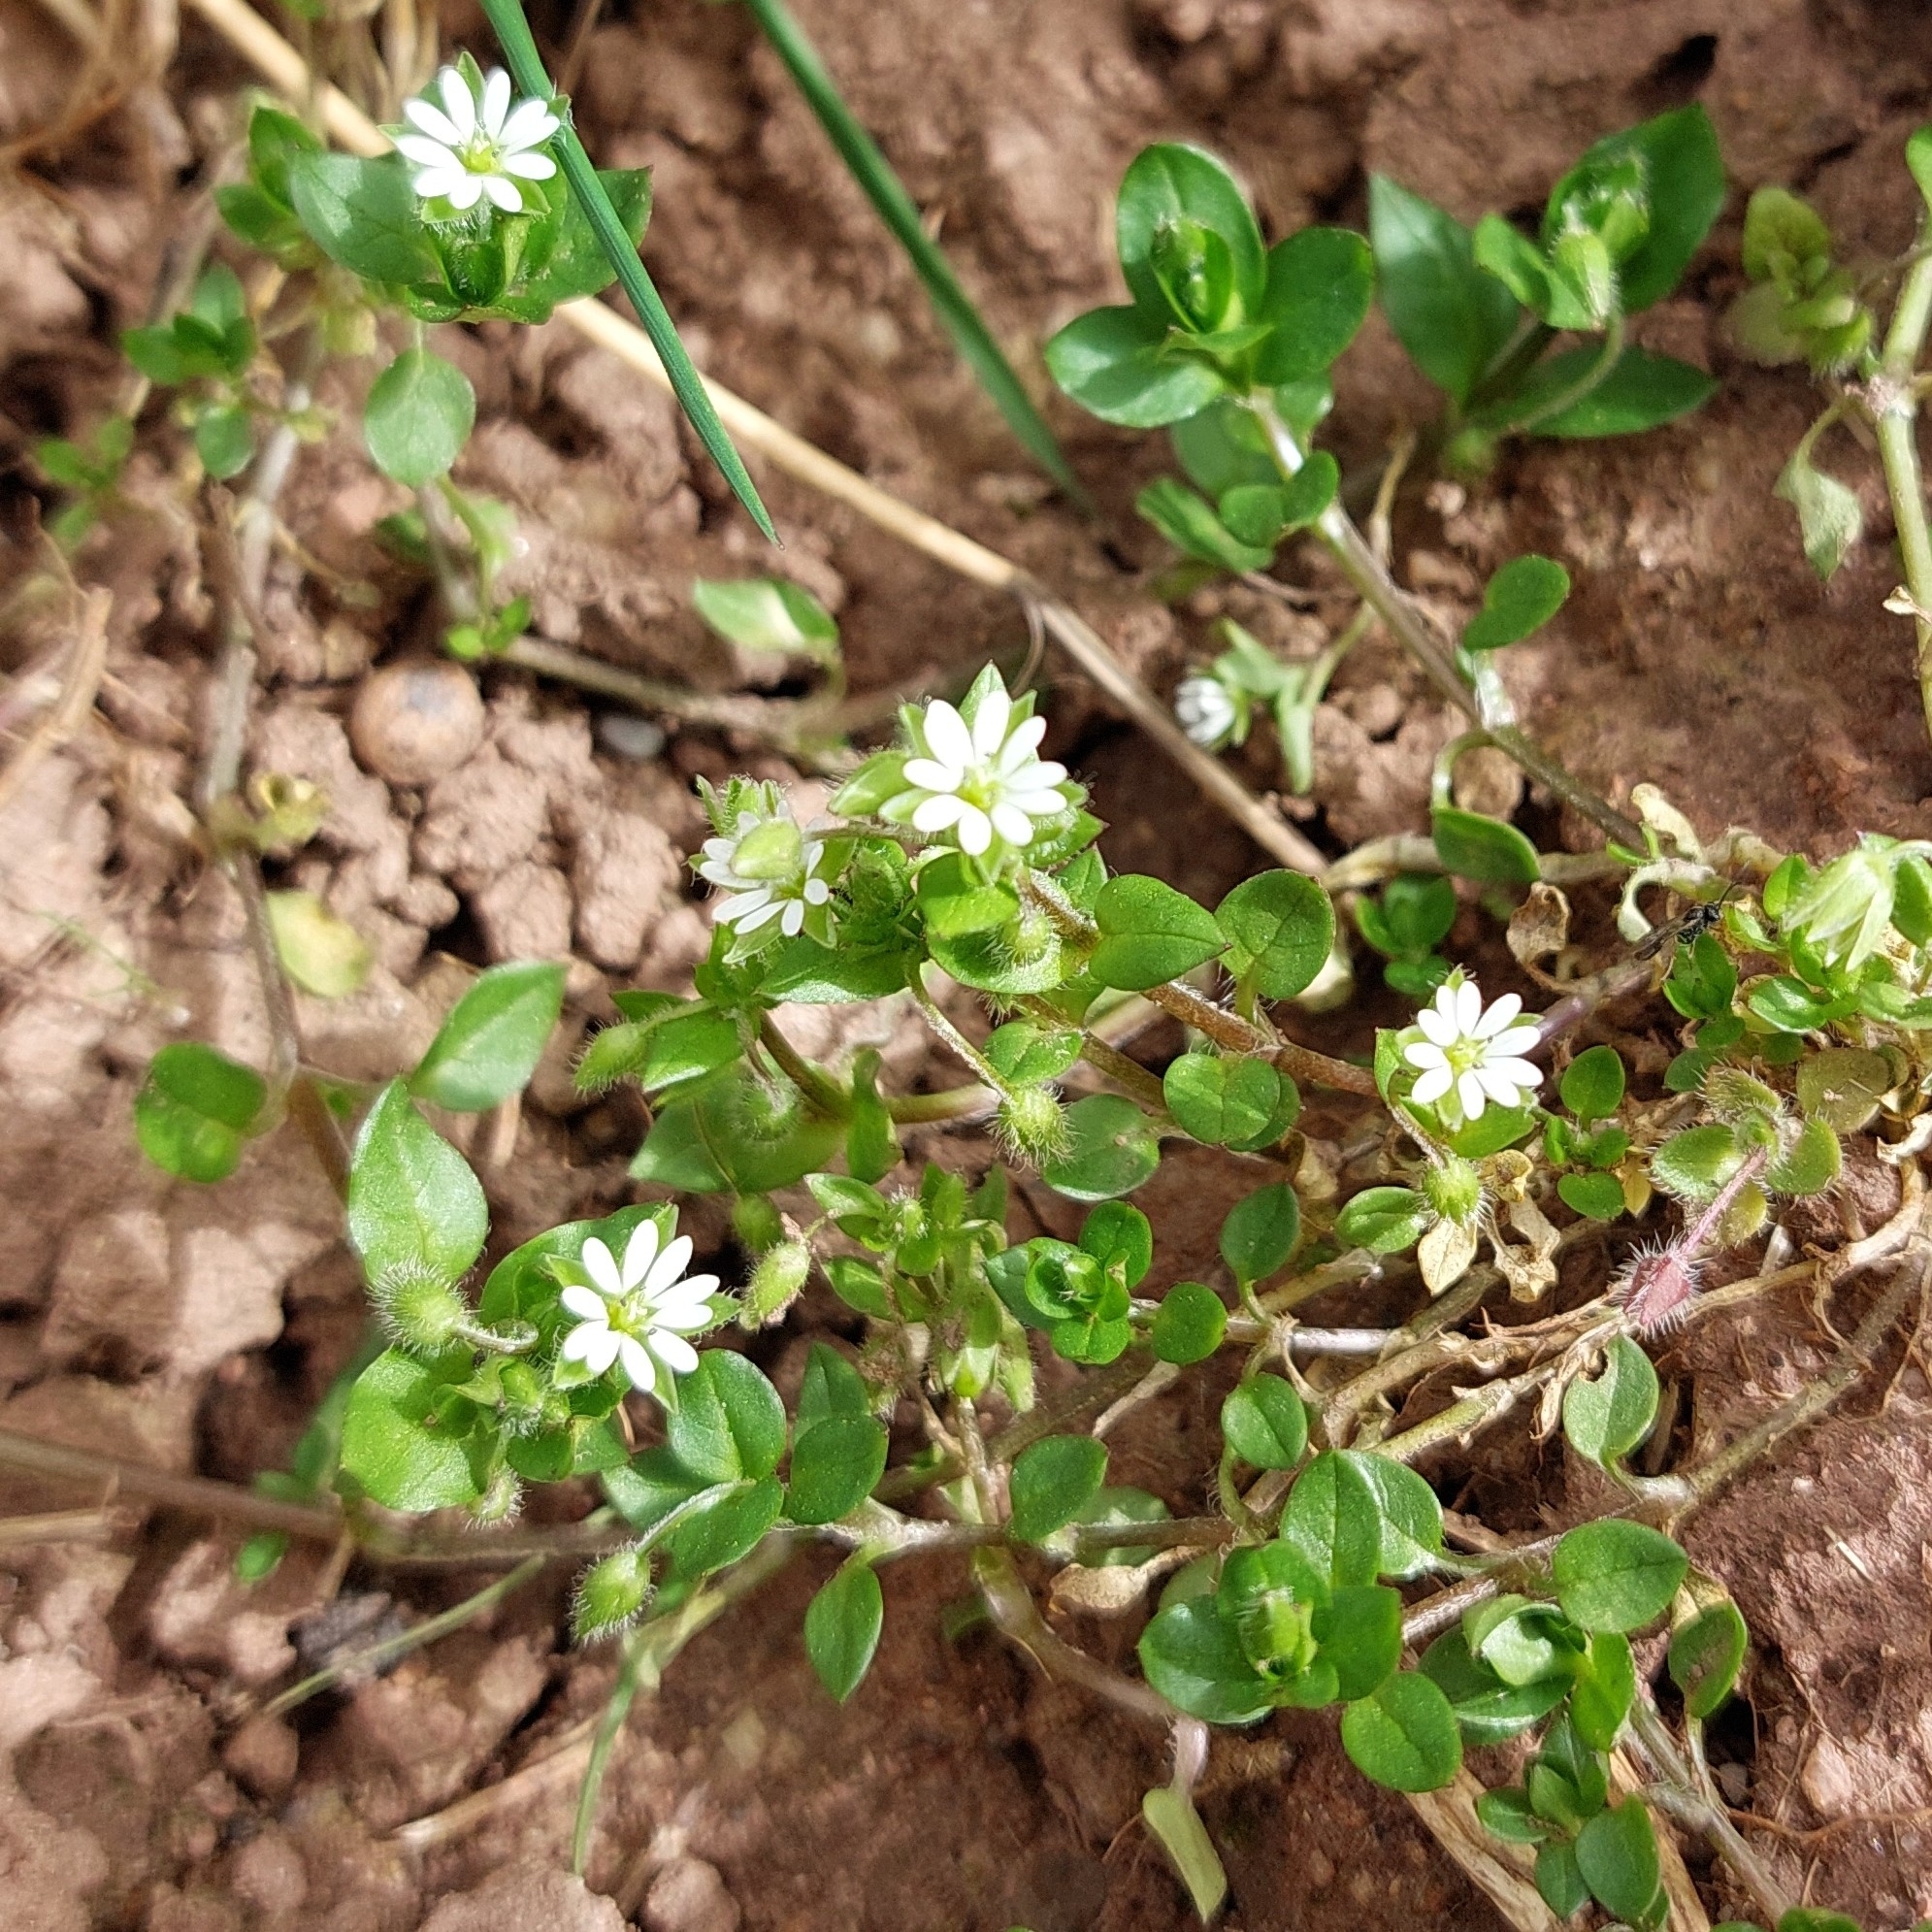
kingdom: Plantae
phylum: Tracheophyta
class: Magnoliopsida
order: Caryophyllales
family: Caryophyllaceae
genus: Stellaria
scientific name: Stellaria media
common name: Common chickweed
